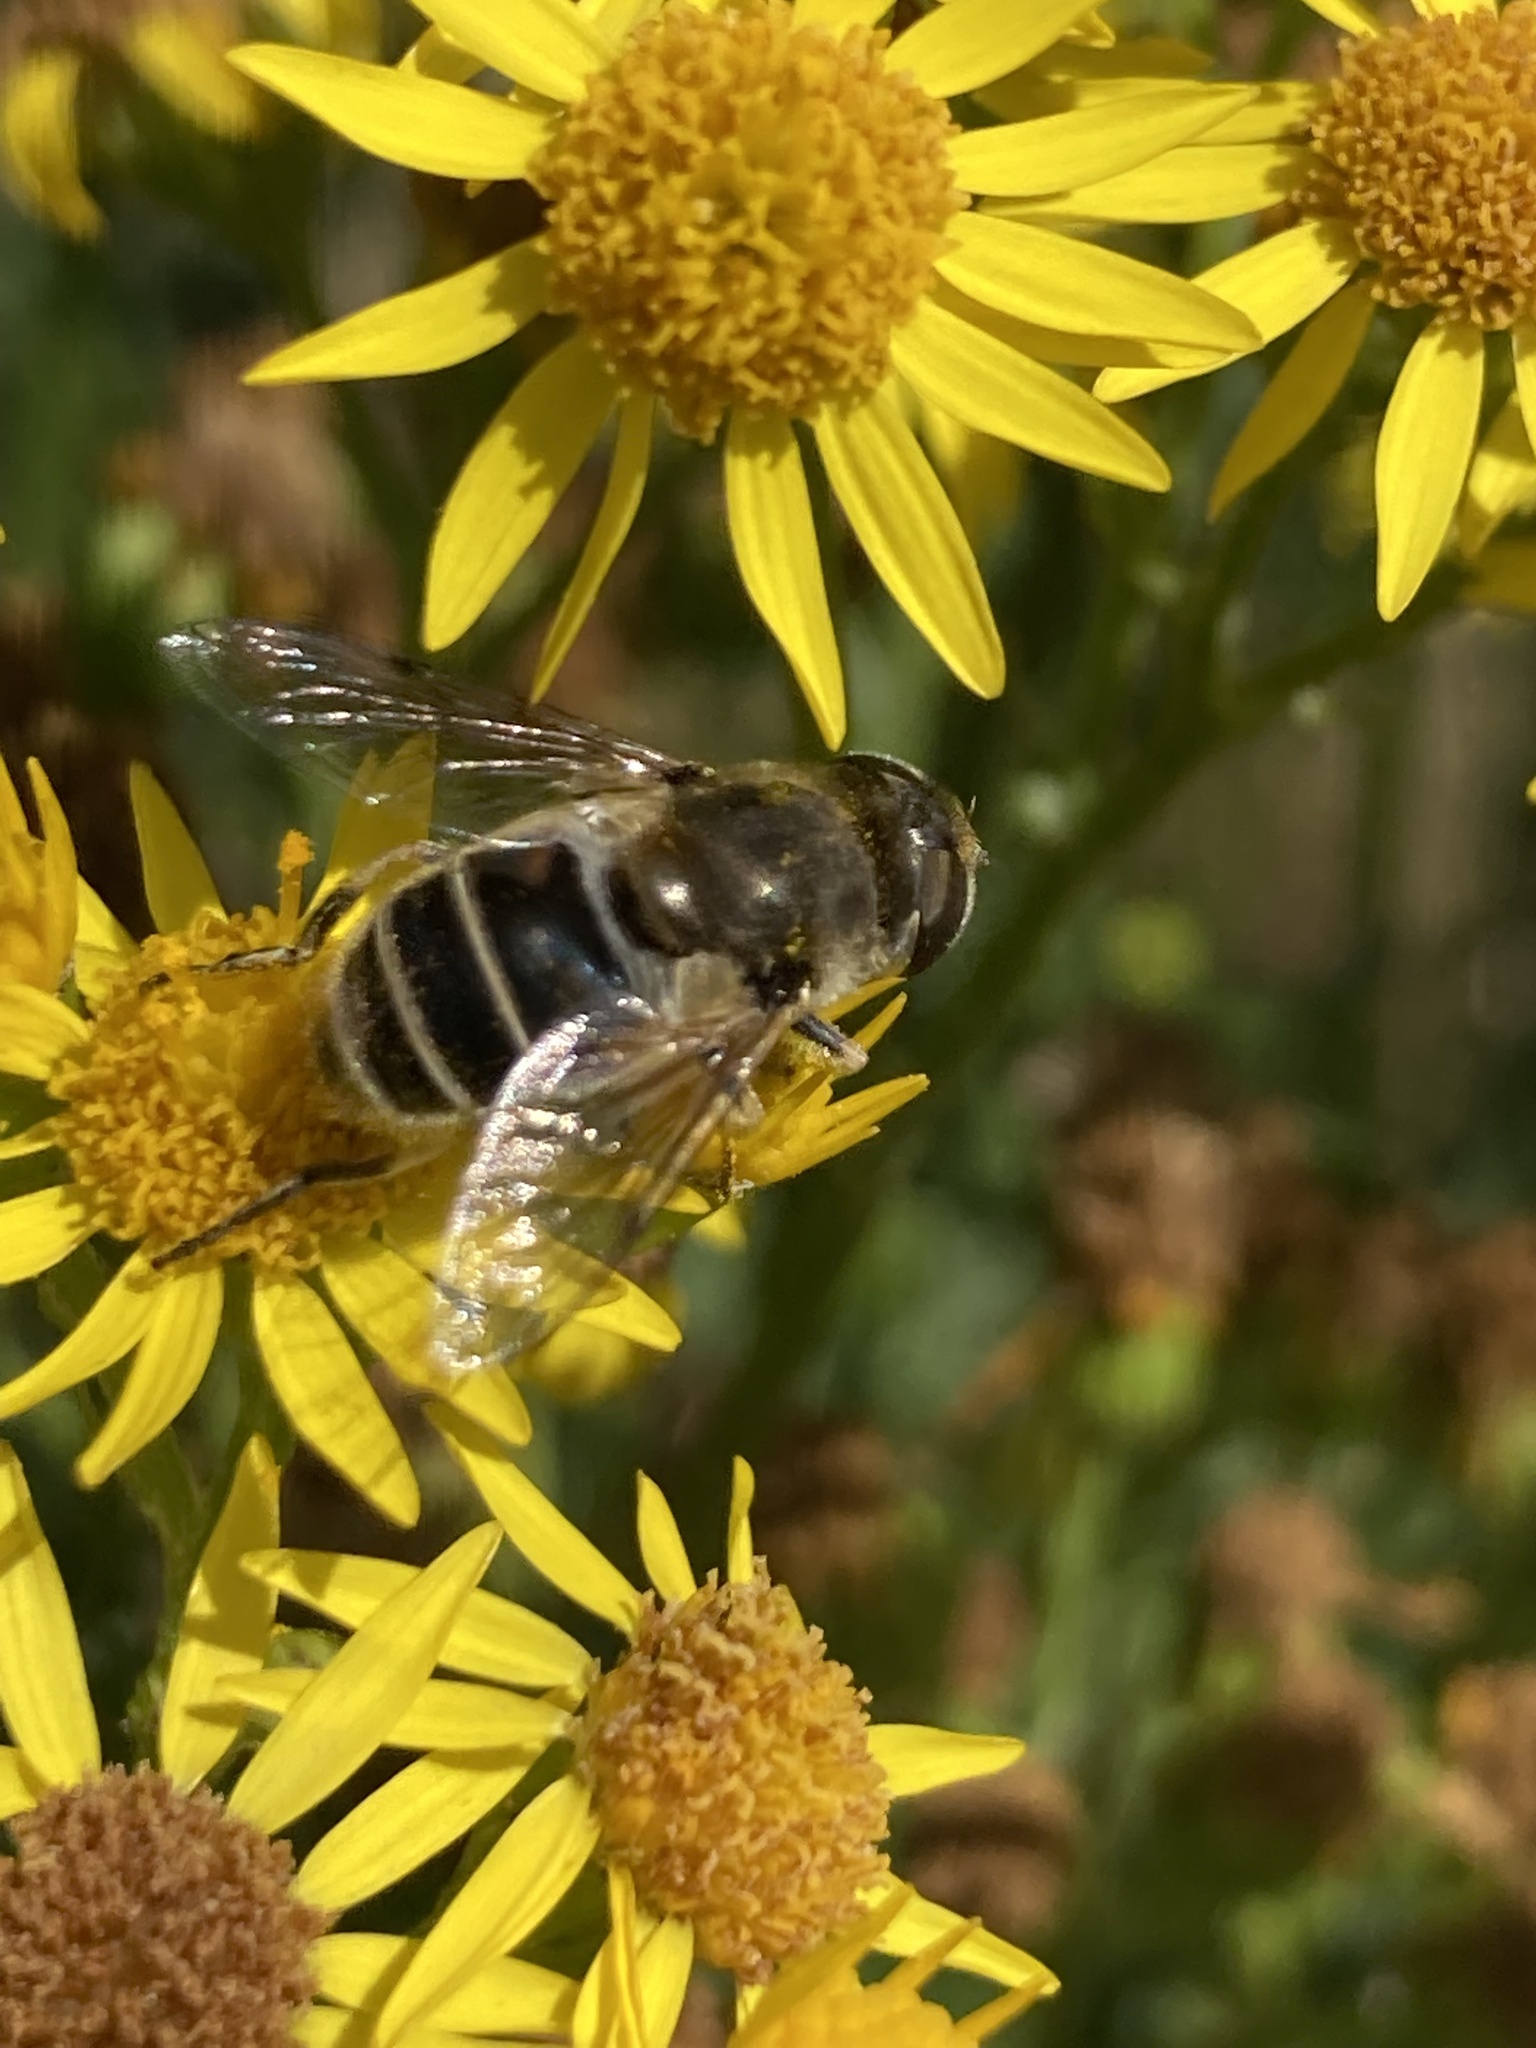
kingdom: Animalia
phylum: Arthropoda
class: Insecta
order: Diptera
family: Syrphidae
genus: Eristalis
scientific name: Eristalis arbustorum
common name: Hover fly
